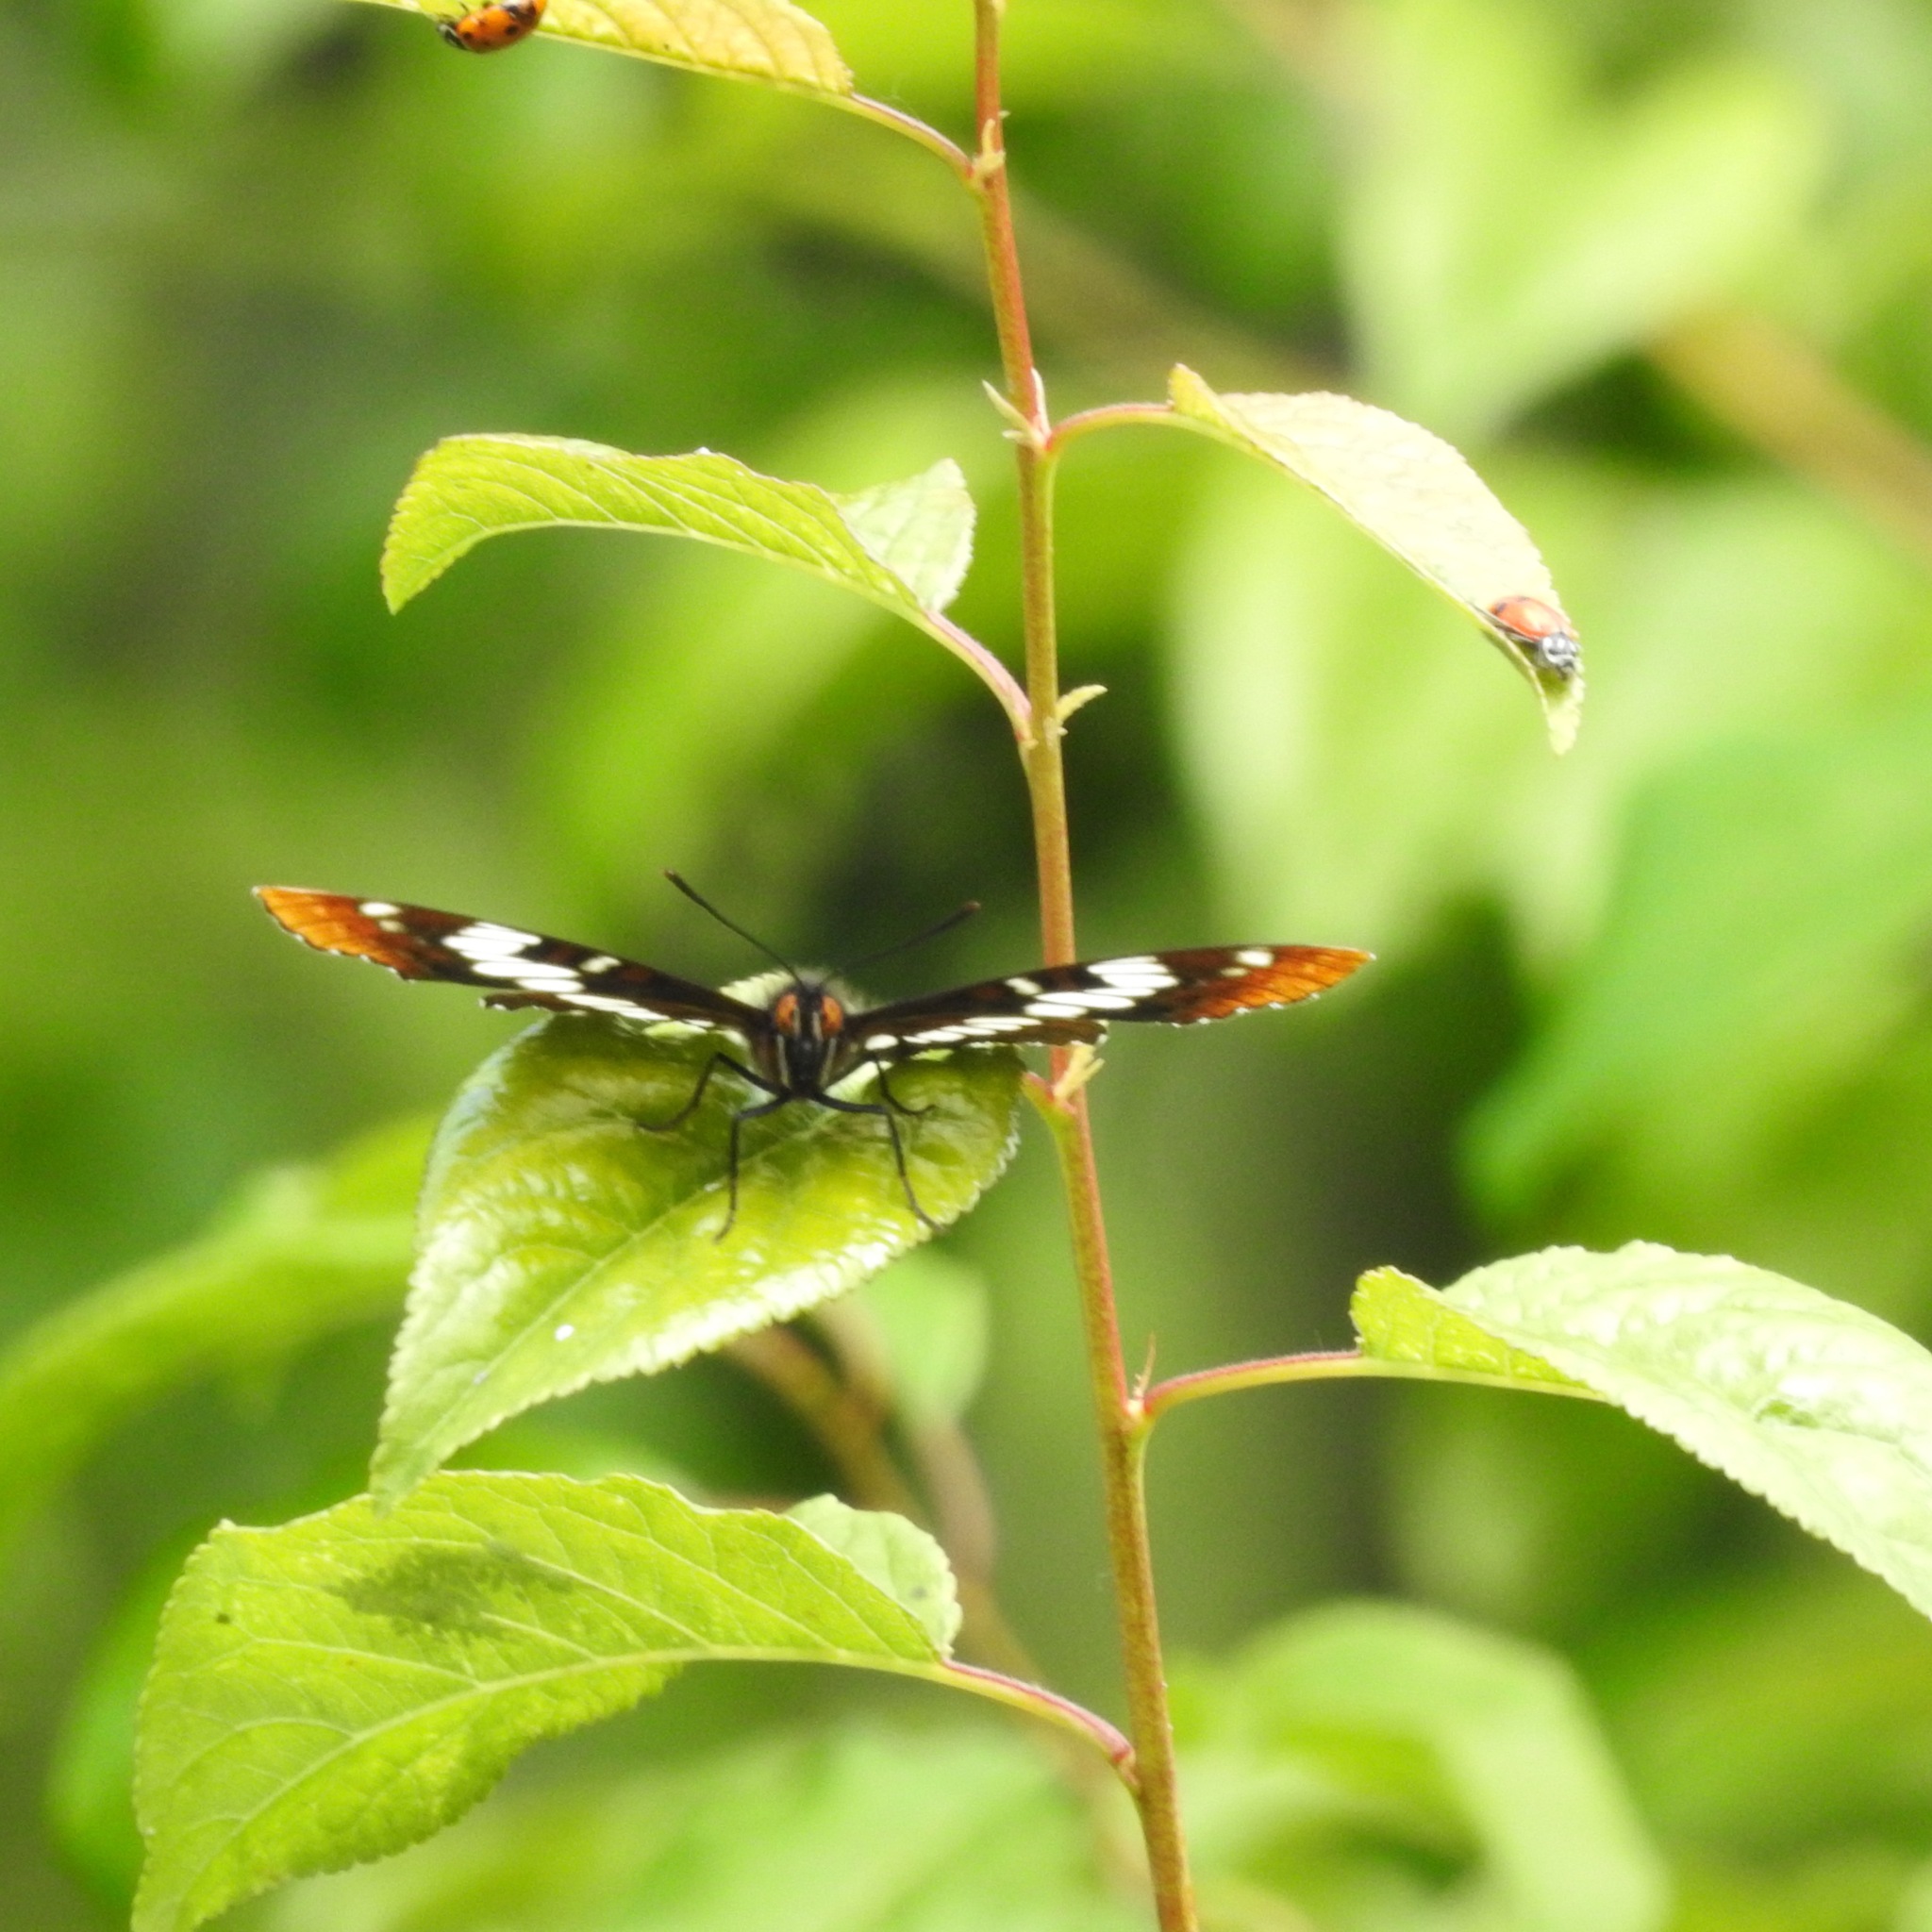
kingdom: Animalia
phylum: Arthropoda
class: Insecta
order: Lepidoptera
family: Nymphalidae
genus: Limenitis
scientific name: Limenitis lorquini
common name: Lorquin's admiral
